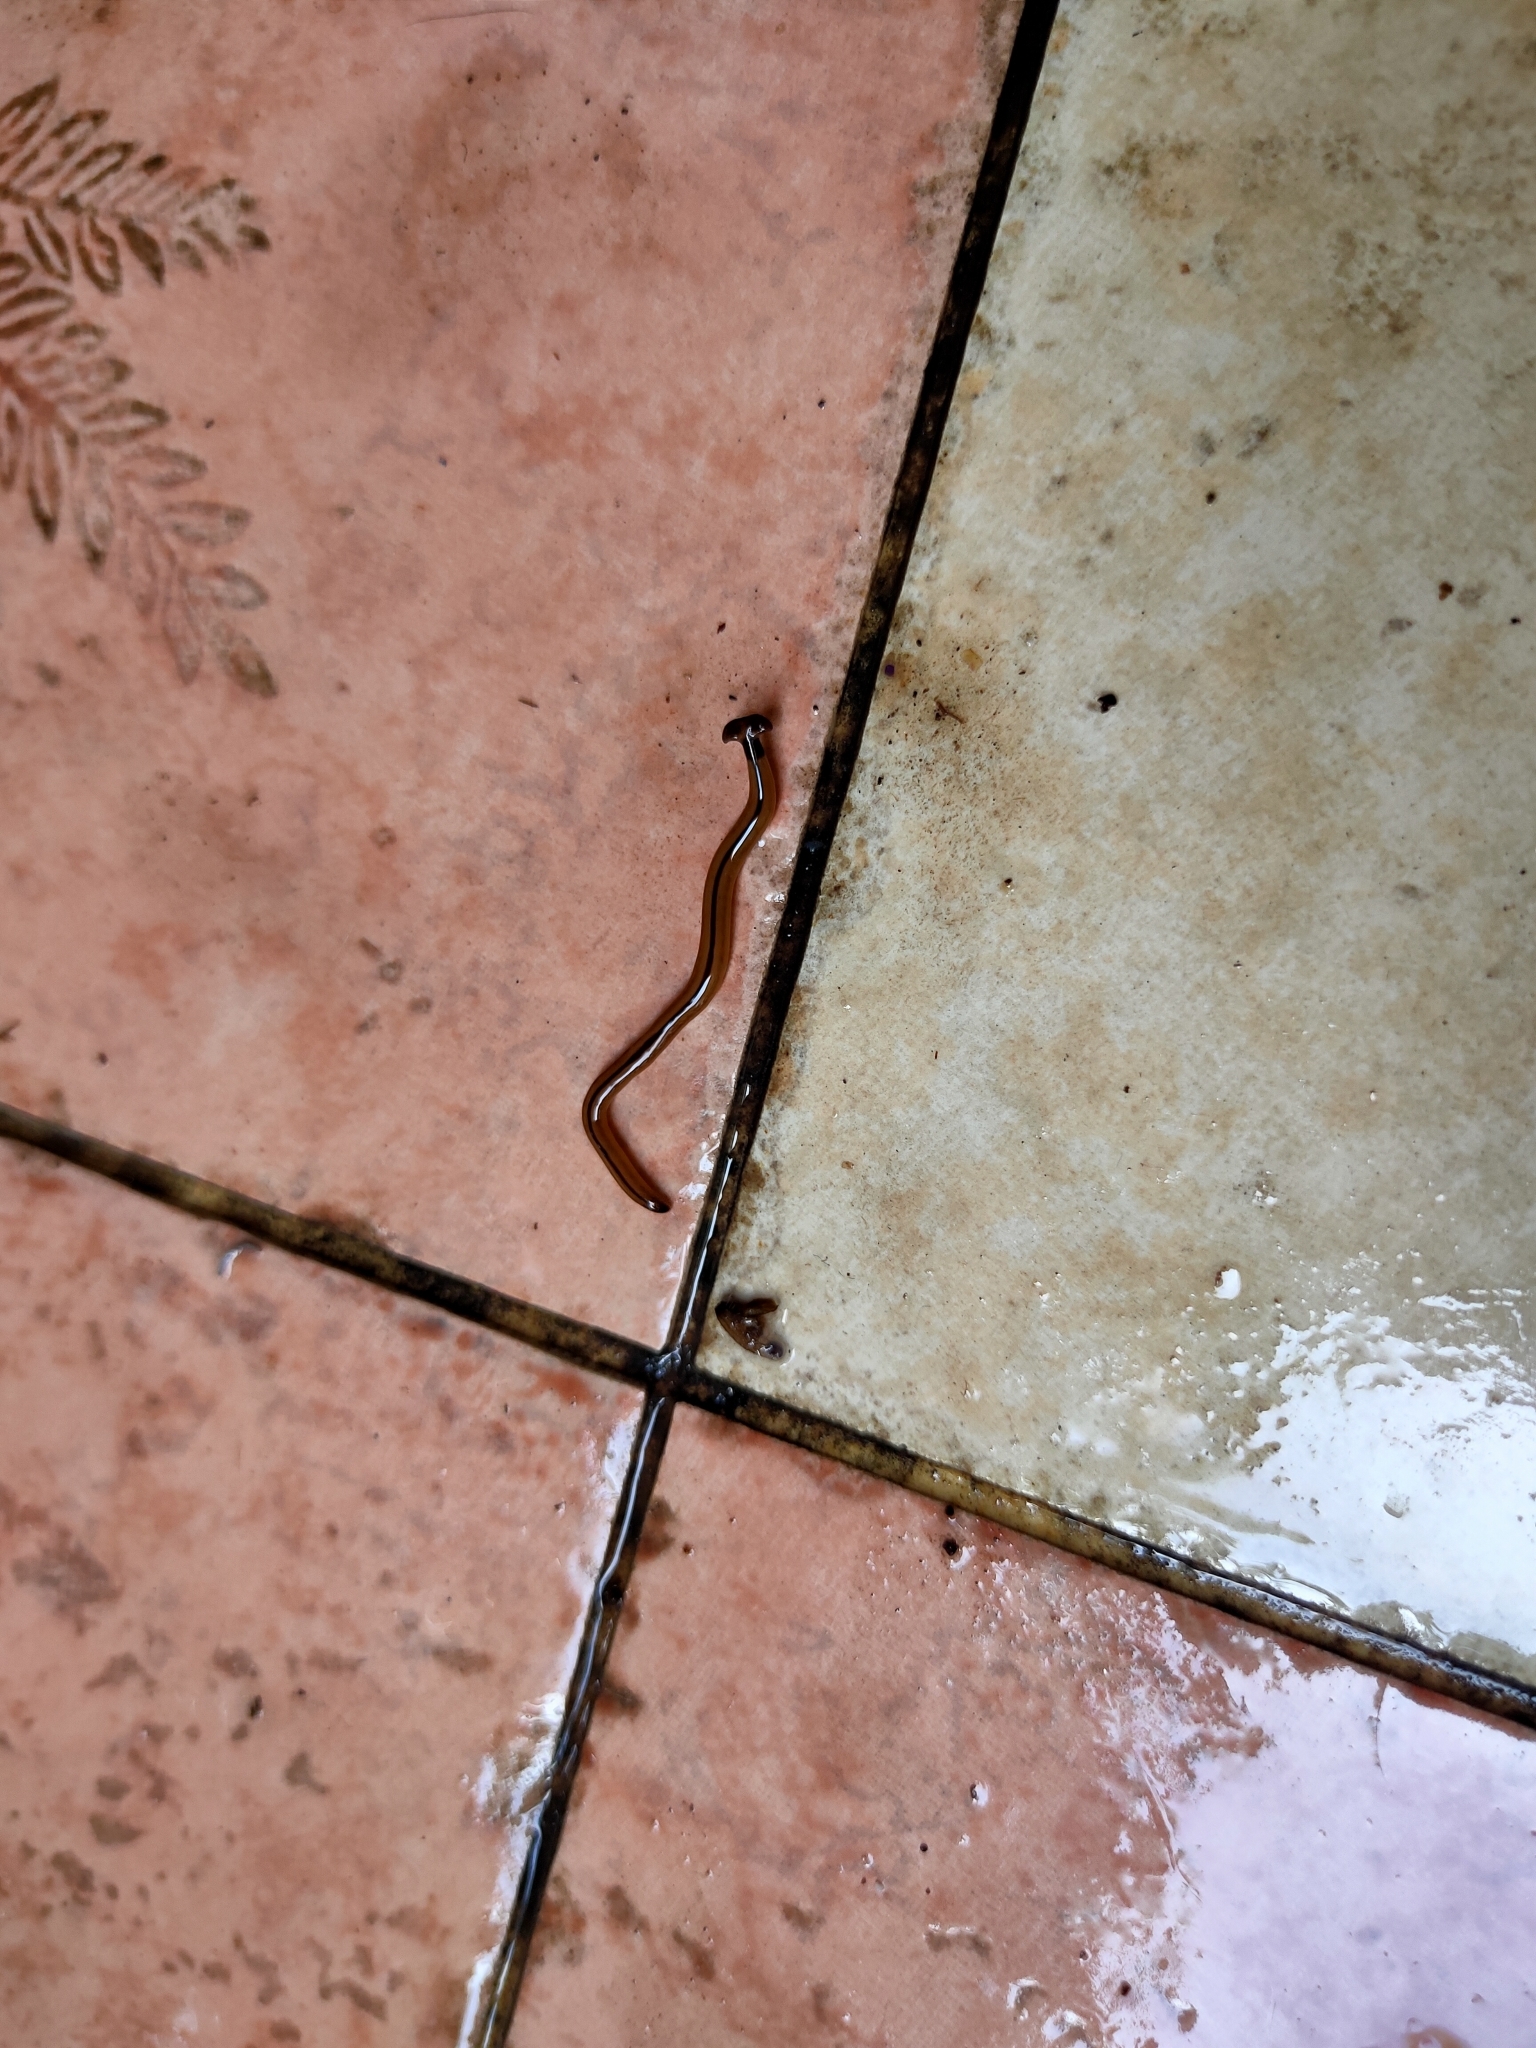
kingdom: Animalia
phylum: Platyhelminthes
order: Tricladida
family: Geoplanidae
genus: Bipalium
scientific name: Bipalium vagum
